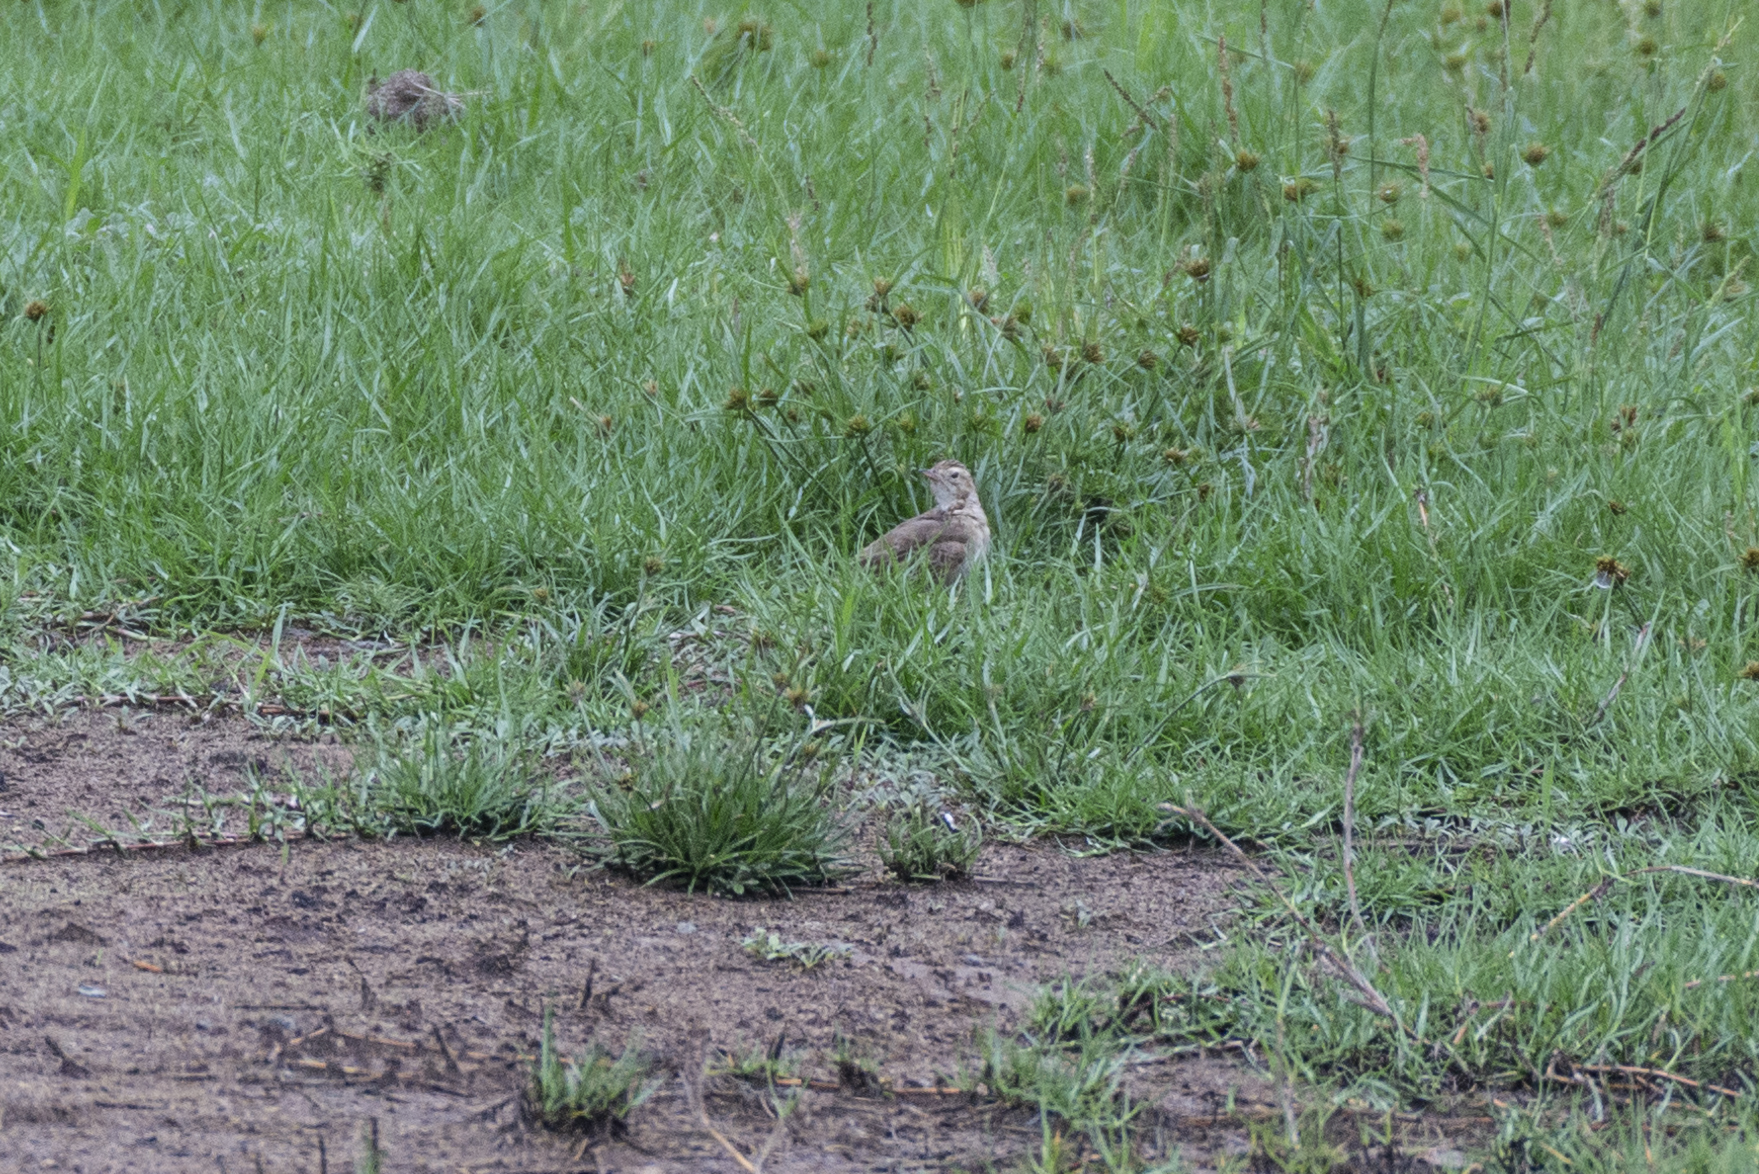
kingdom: Animalia
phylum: Chordata
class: Aves
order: Passeriformes
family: Motacillidae
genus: Anthus
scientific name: Anthus richardi
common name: Richard's pipit
